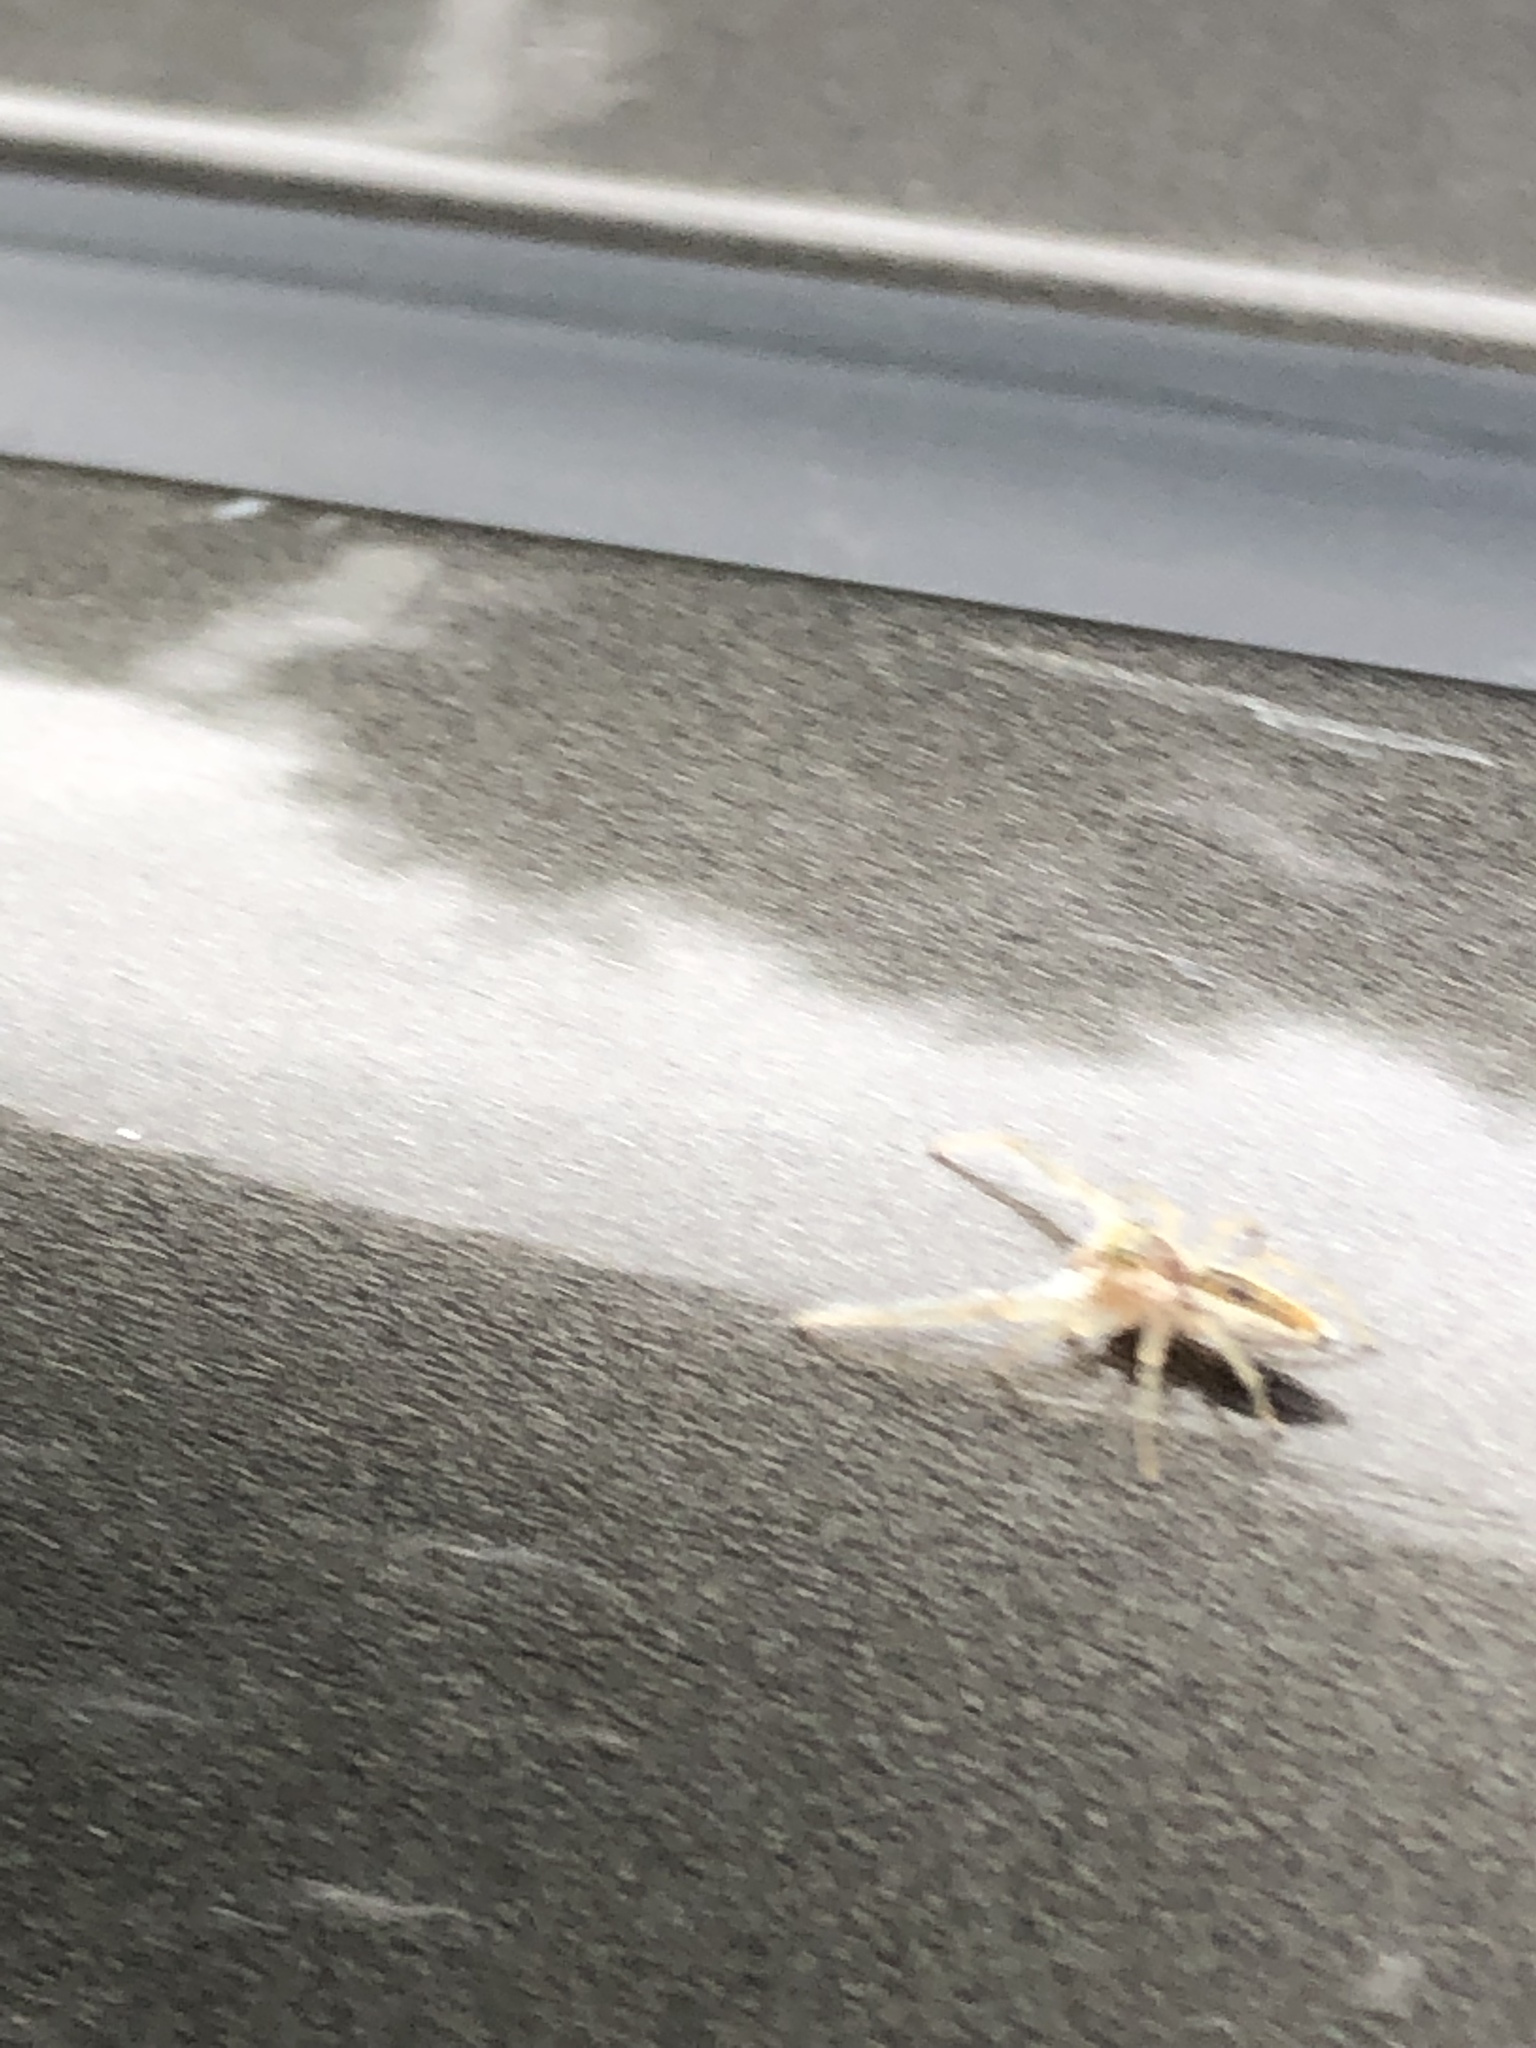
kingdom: Animalia
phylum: Arthropoda
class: Arachnida
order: Araneae
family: Salticidae
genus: Hentzia
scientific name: Hentzia mitrata
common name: White-jawed jumping spider
